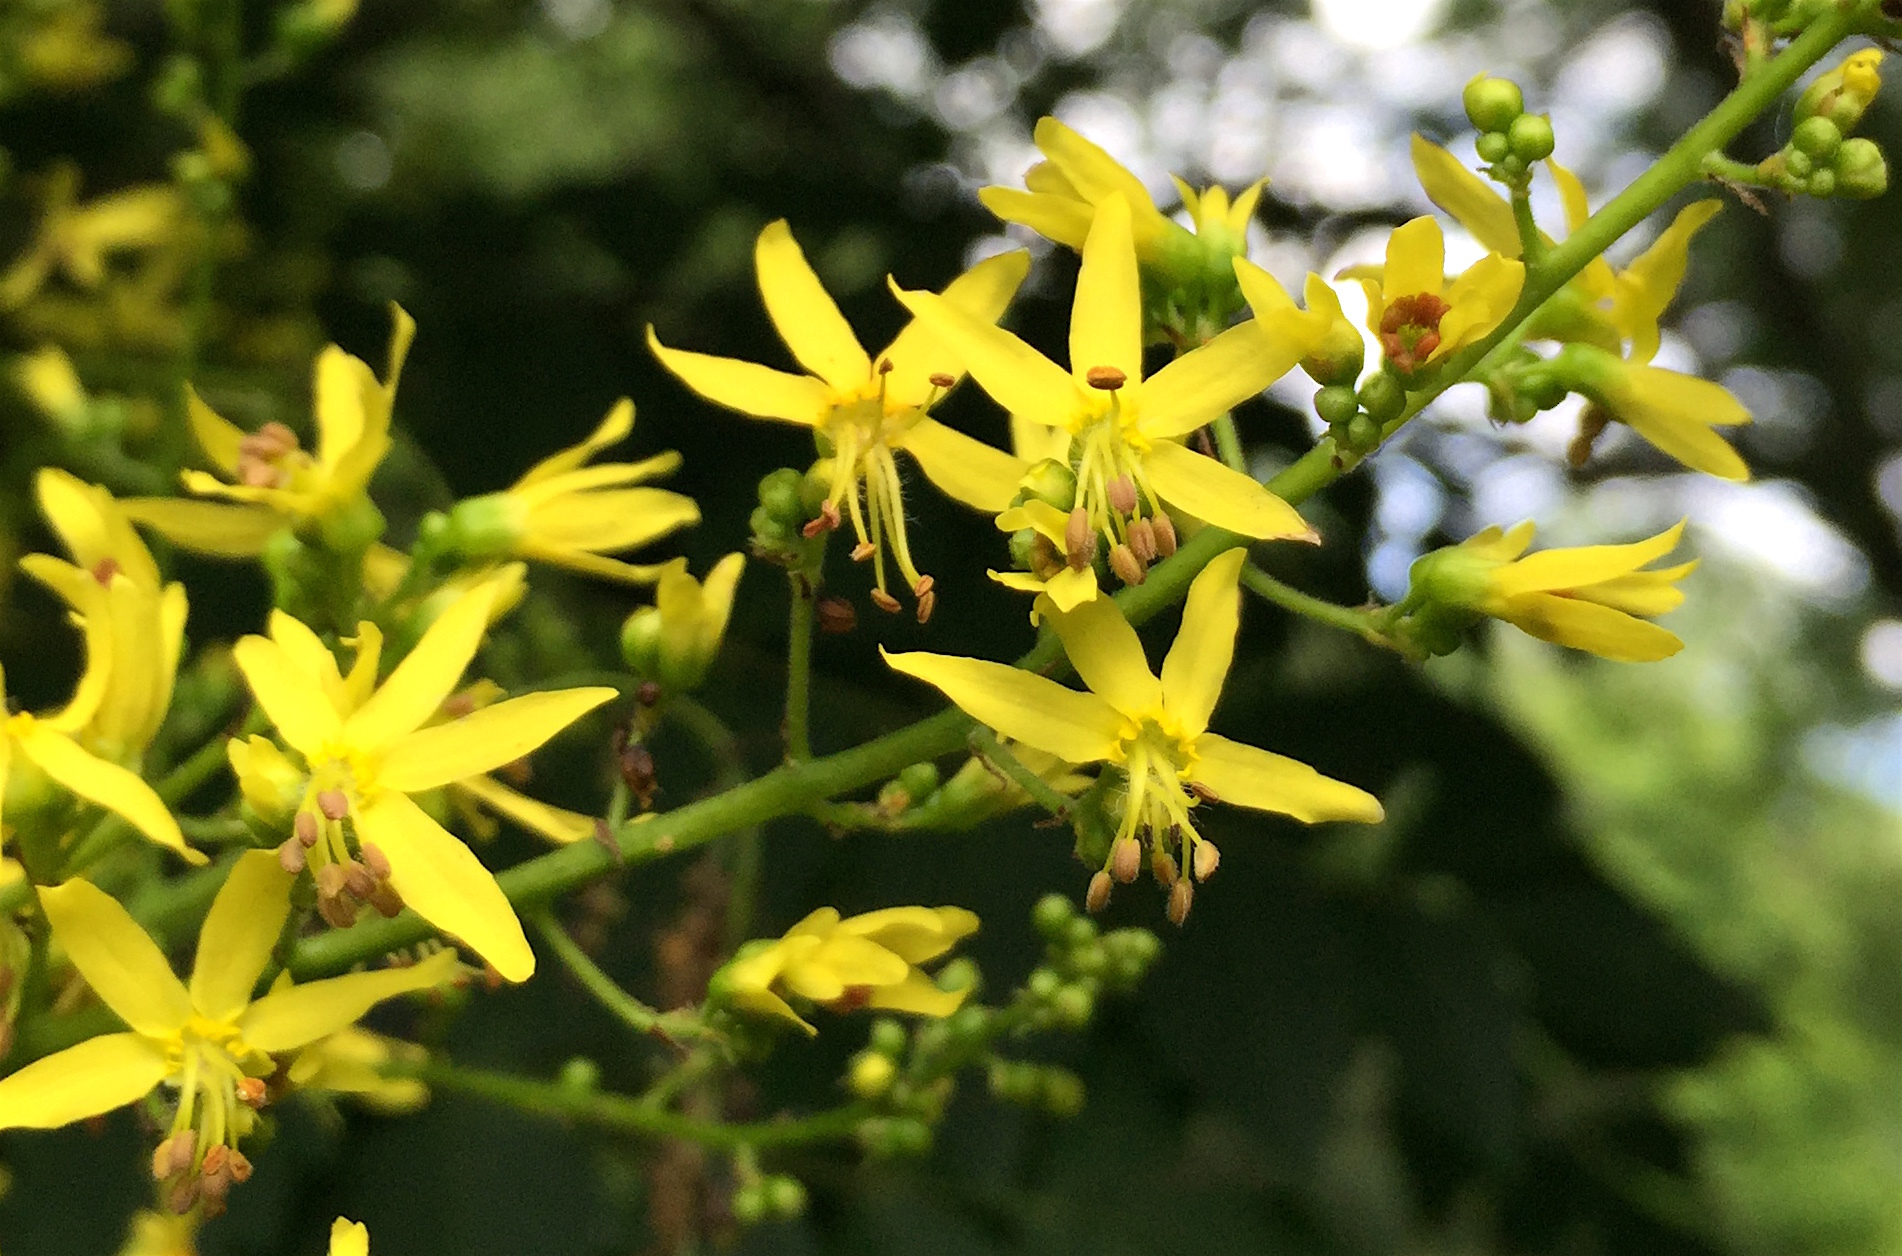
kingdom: Plantae
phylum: Tracheophyta
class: Magnoliopsida
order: Sapindales
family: Sapindaceae
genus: Koelreuteria
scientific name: Koelreuteria paniculata
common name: Pride-of-india
